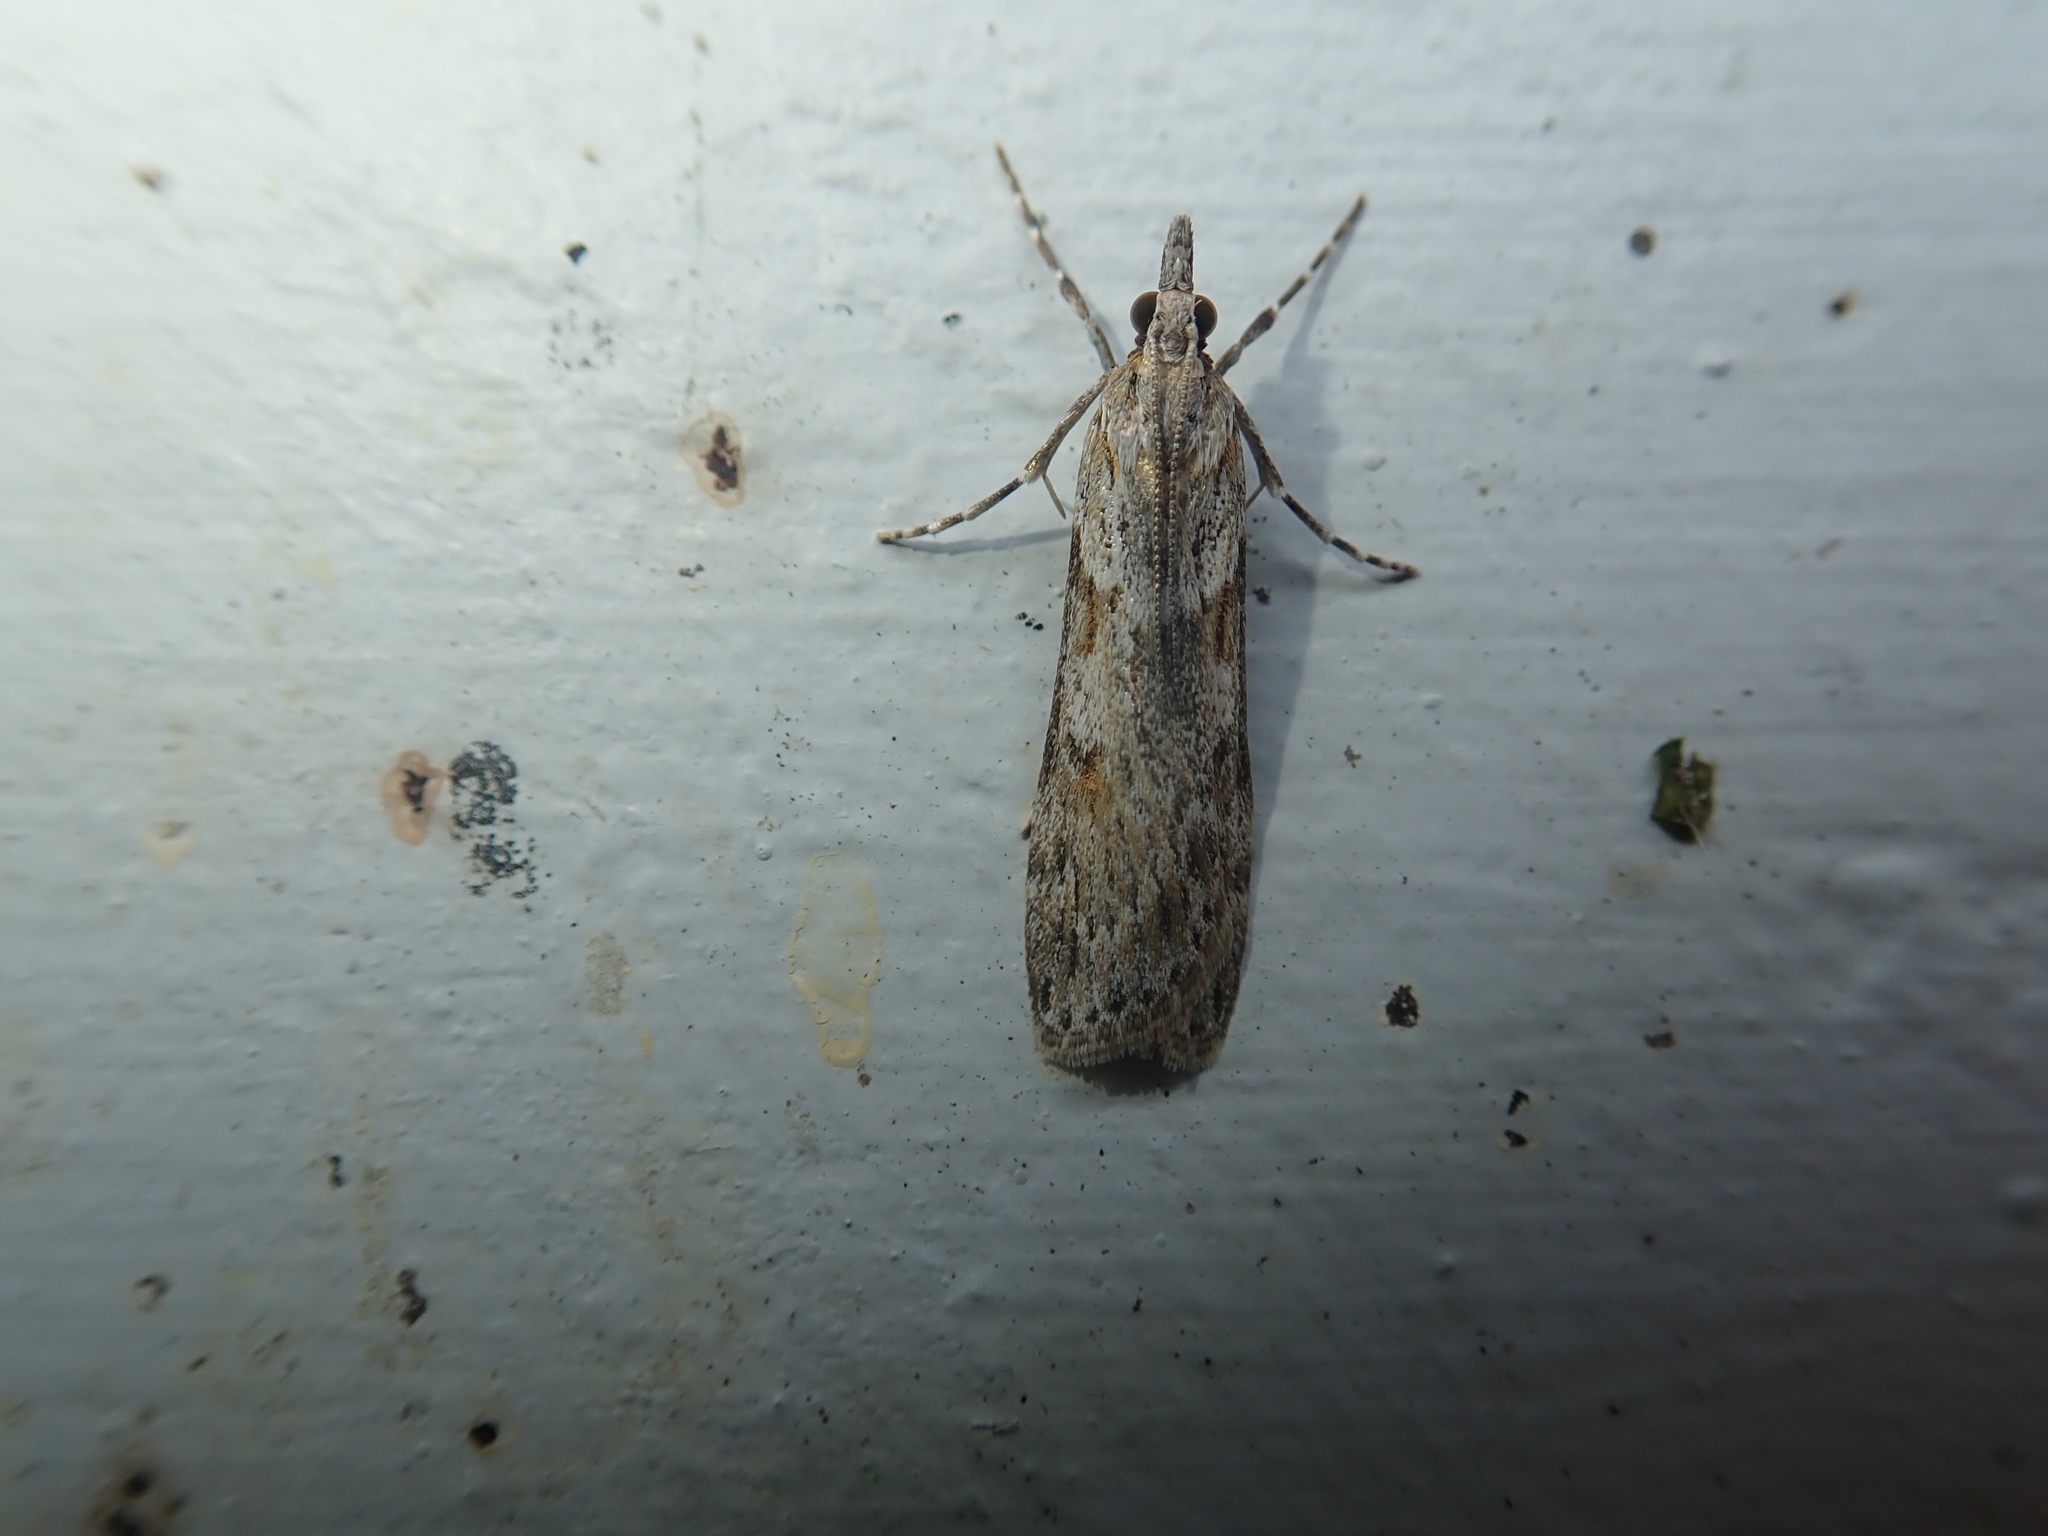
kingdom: Animalia
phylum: Arthropoda
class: Insecta
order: Lepidoptera
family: Crambidae
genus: Scoparia
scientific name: Scoparia halopis
